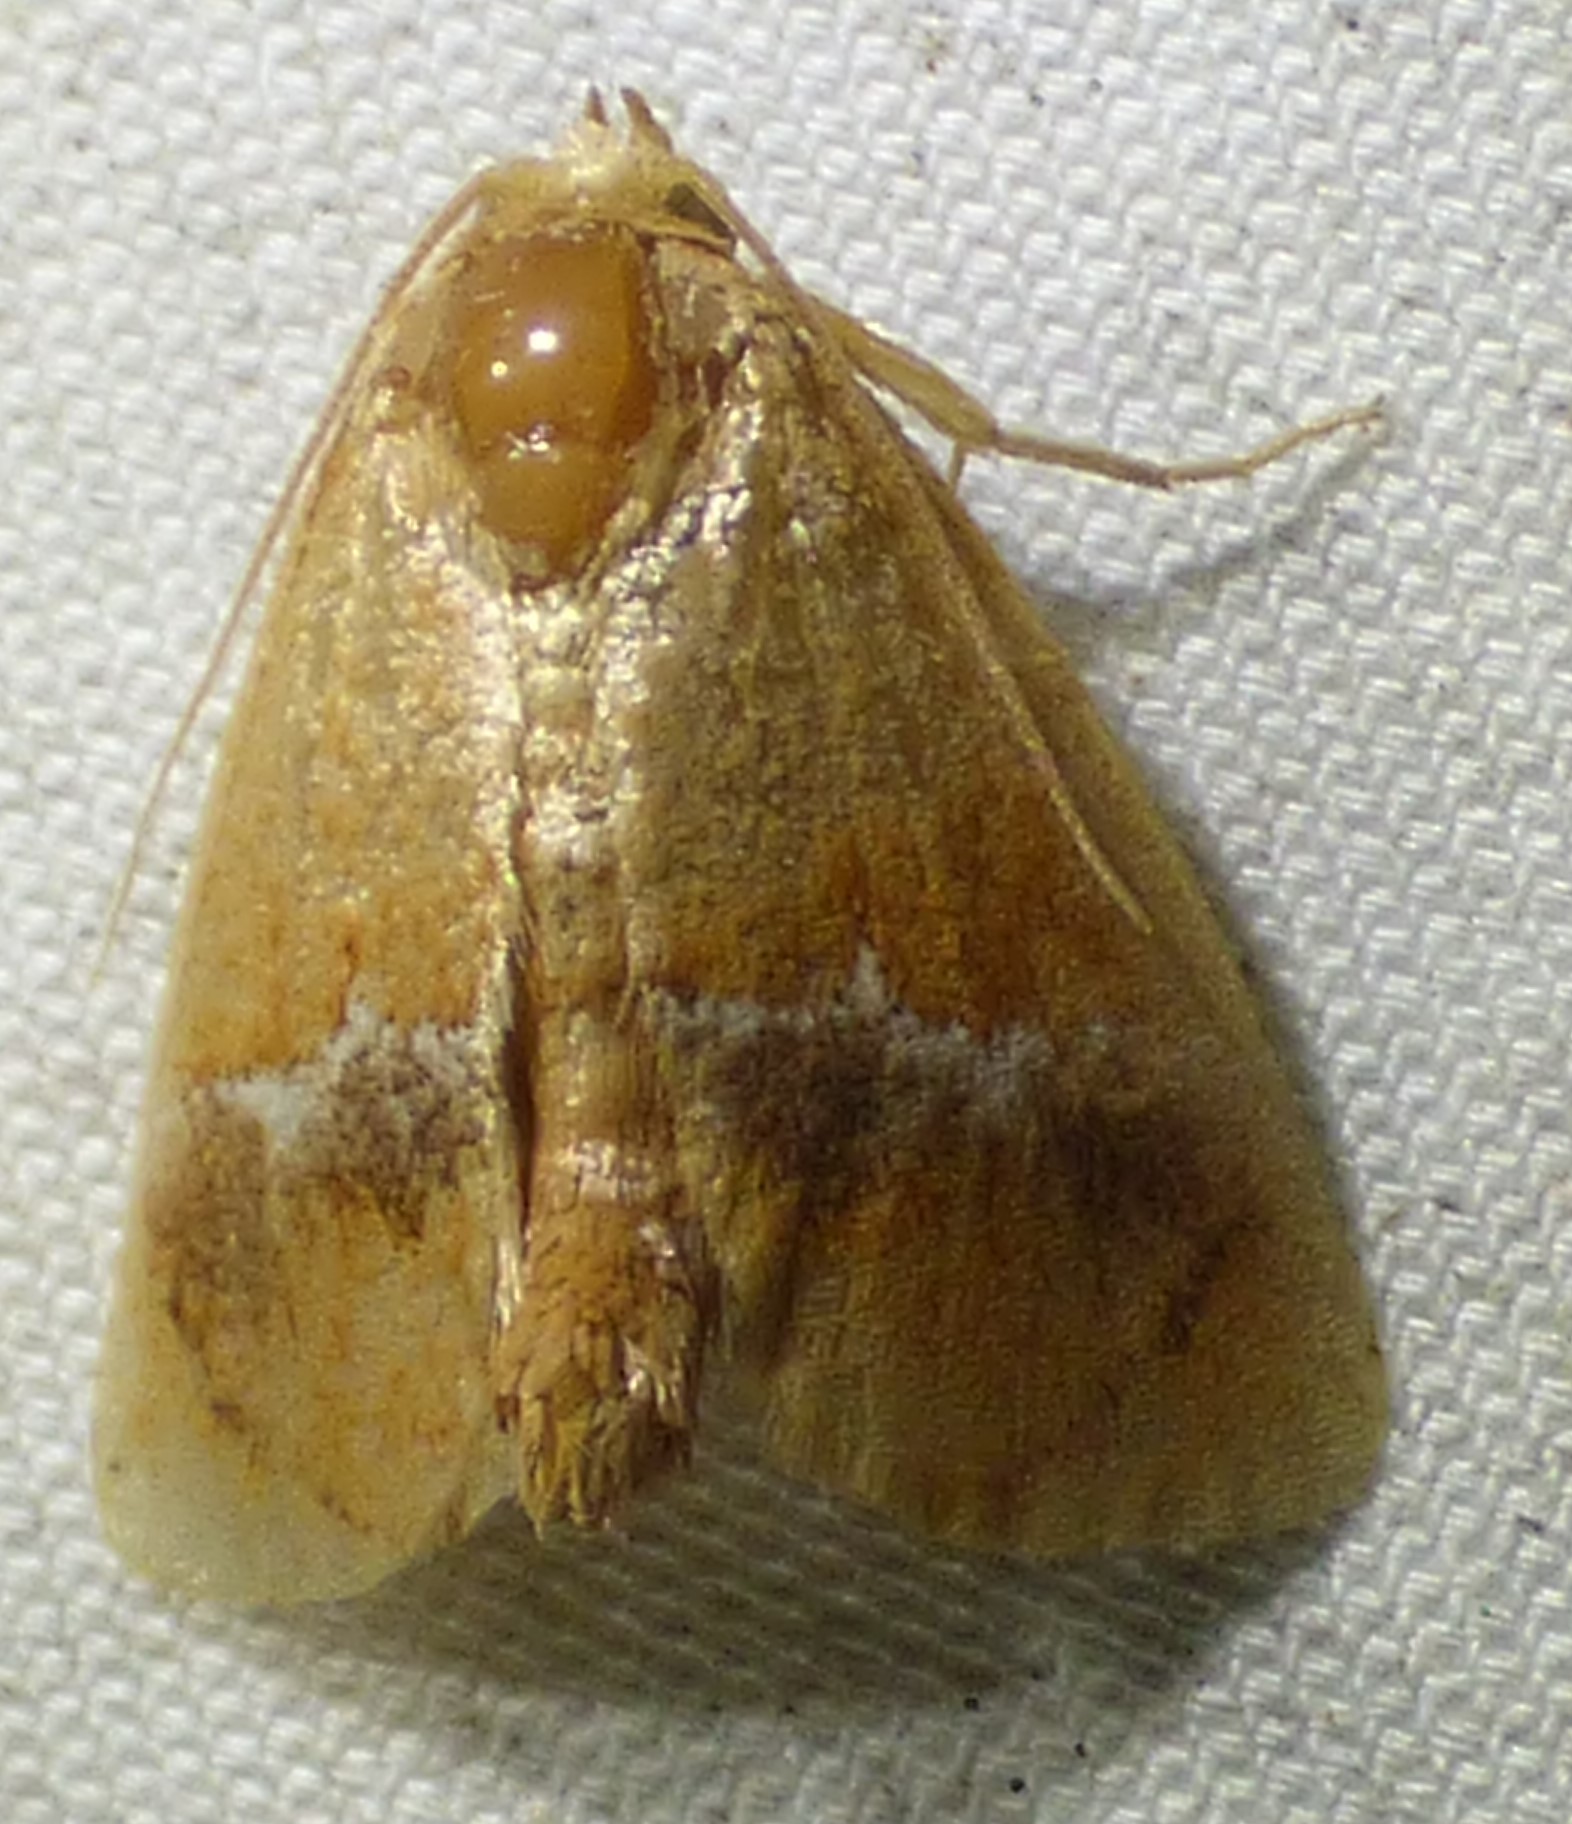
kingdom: Animalia
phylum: Arthropoda
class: Insecta
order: Lepidoptera
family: Limacodidae
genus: Lithacodes
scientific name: Lithacodes fasciola
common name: Yellow-shouldered slug moth
